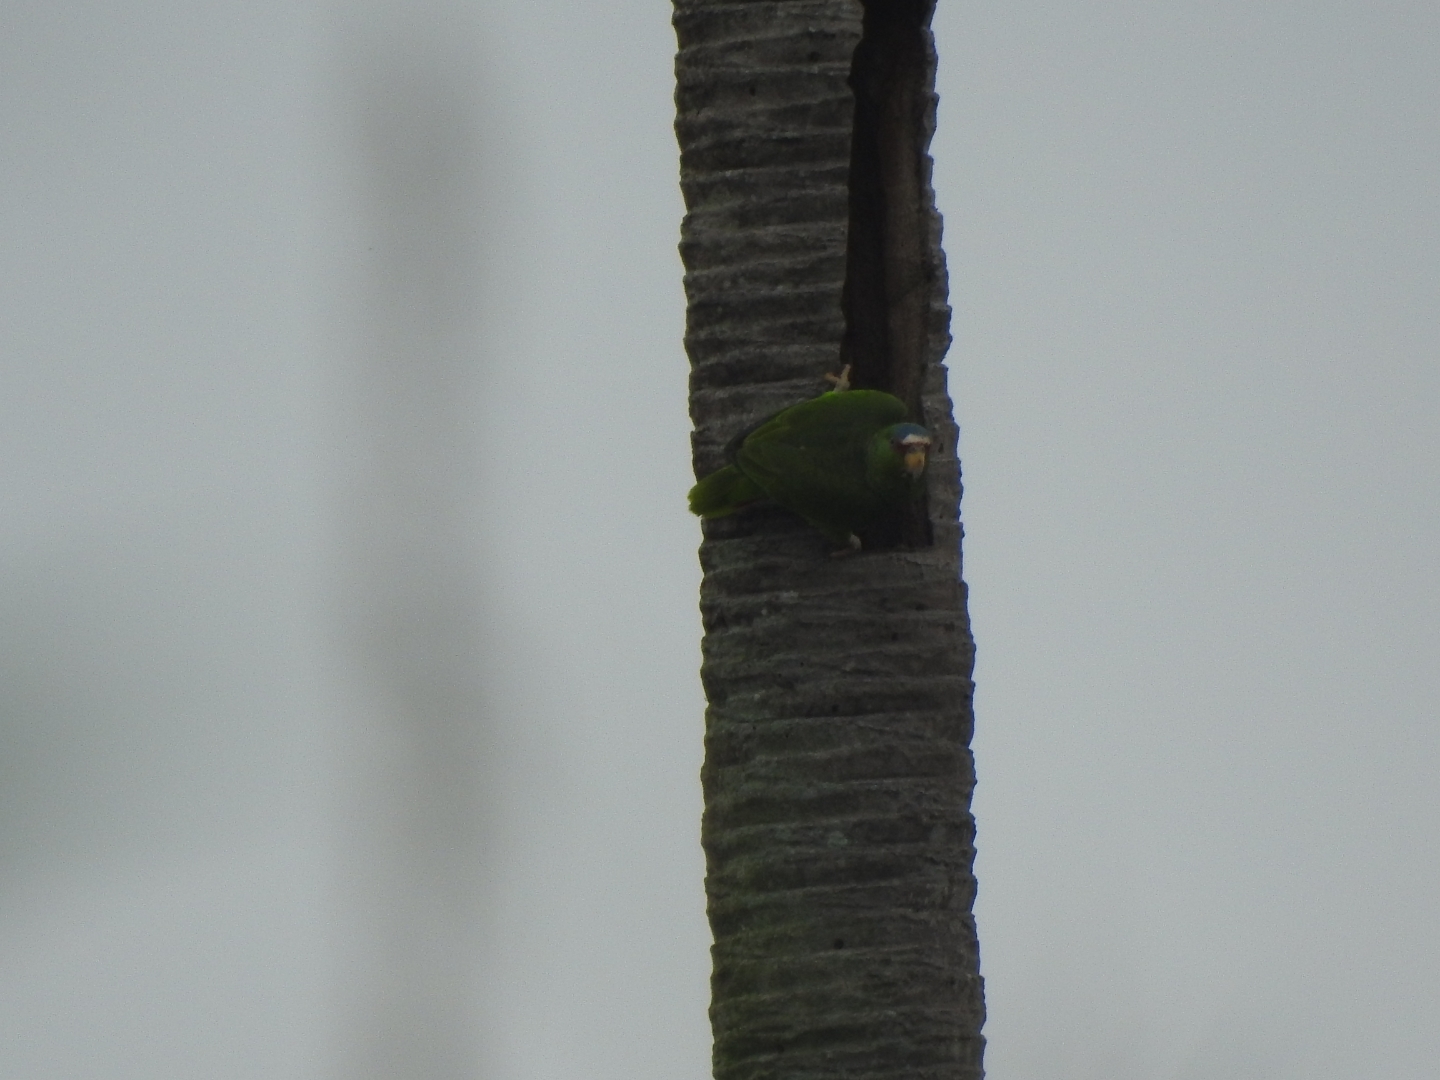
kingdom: Animalia
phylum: Chordata
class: Aves
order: Psittaciformes
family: Psittacidae
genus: Amazona
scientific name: Amazona albifrons
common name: White-fronted amazon
